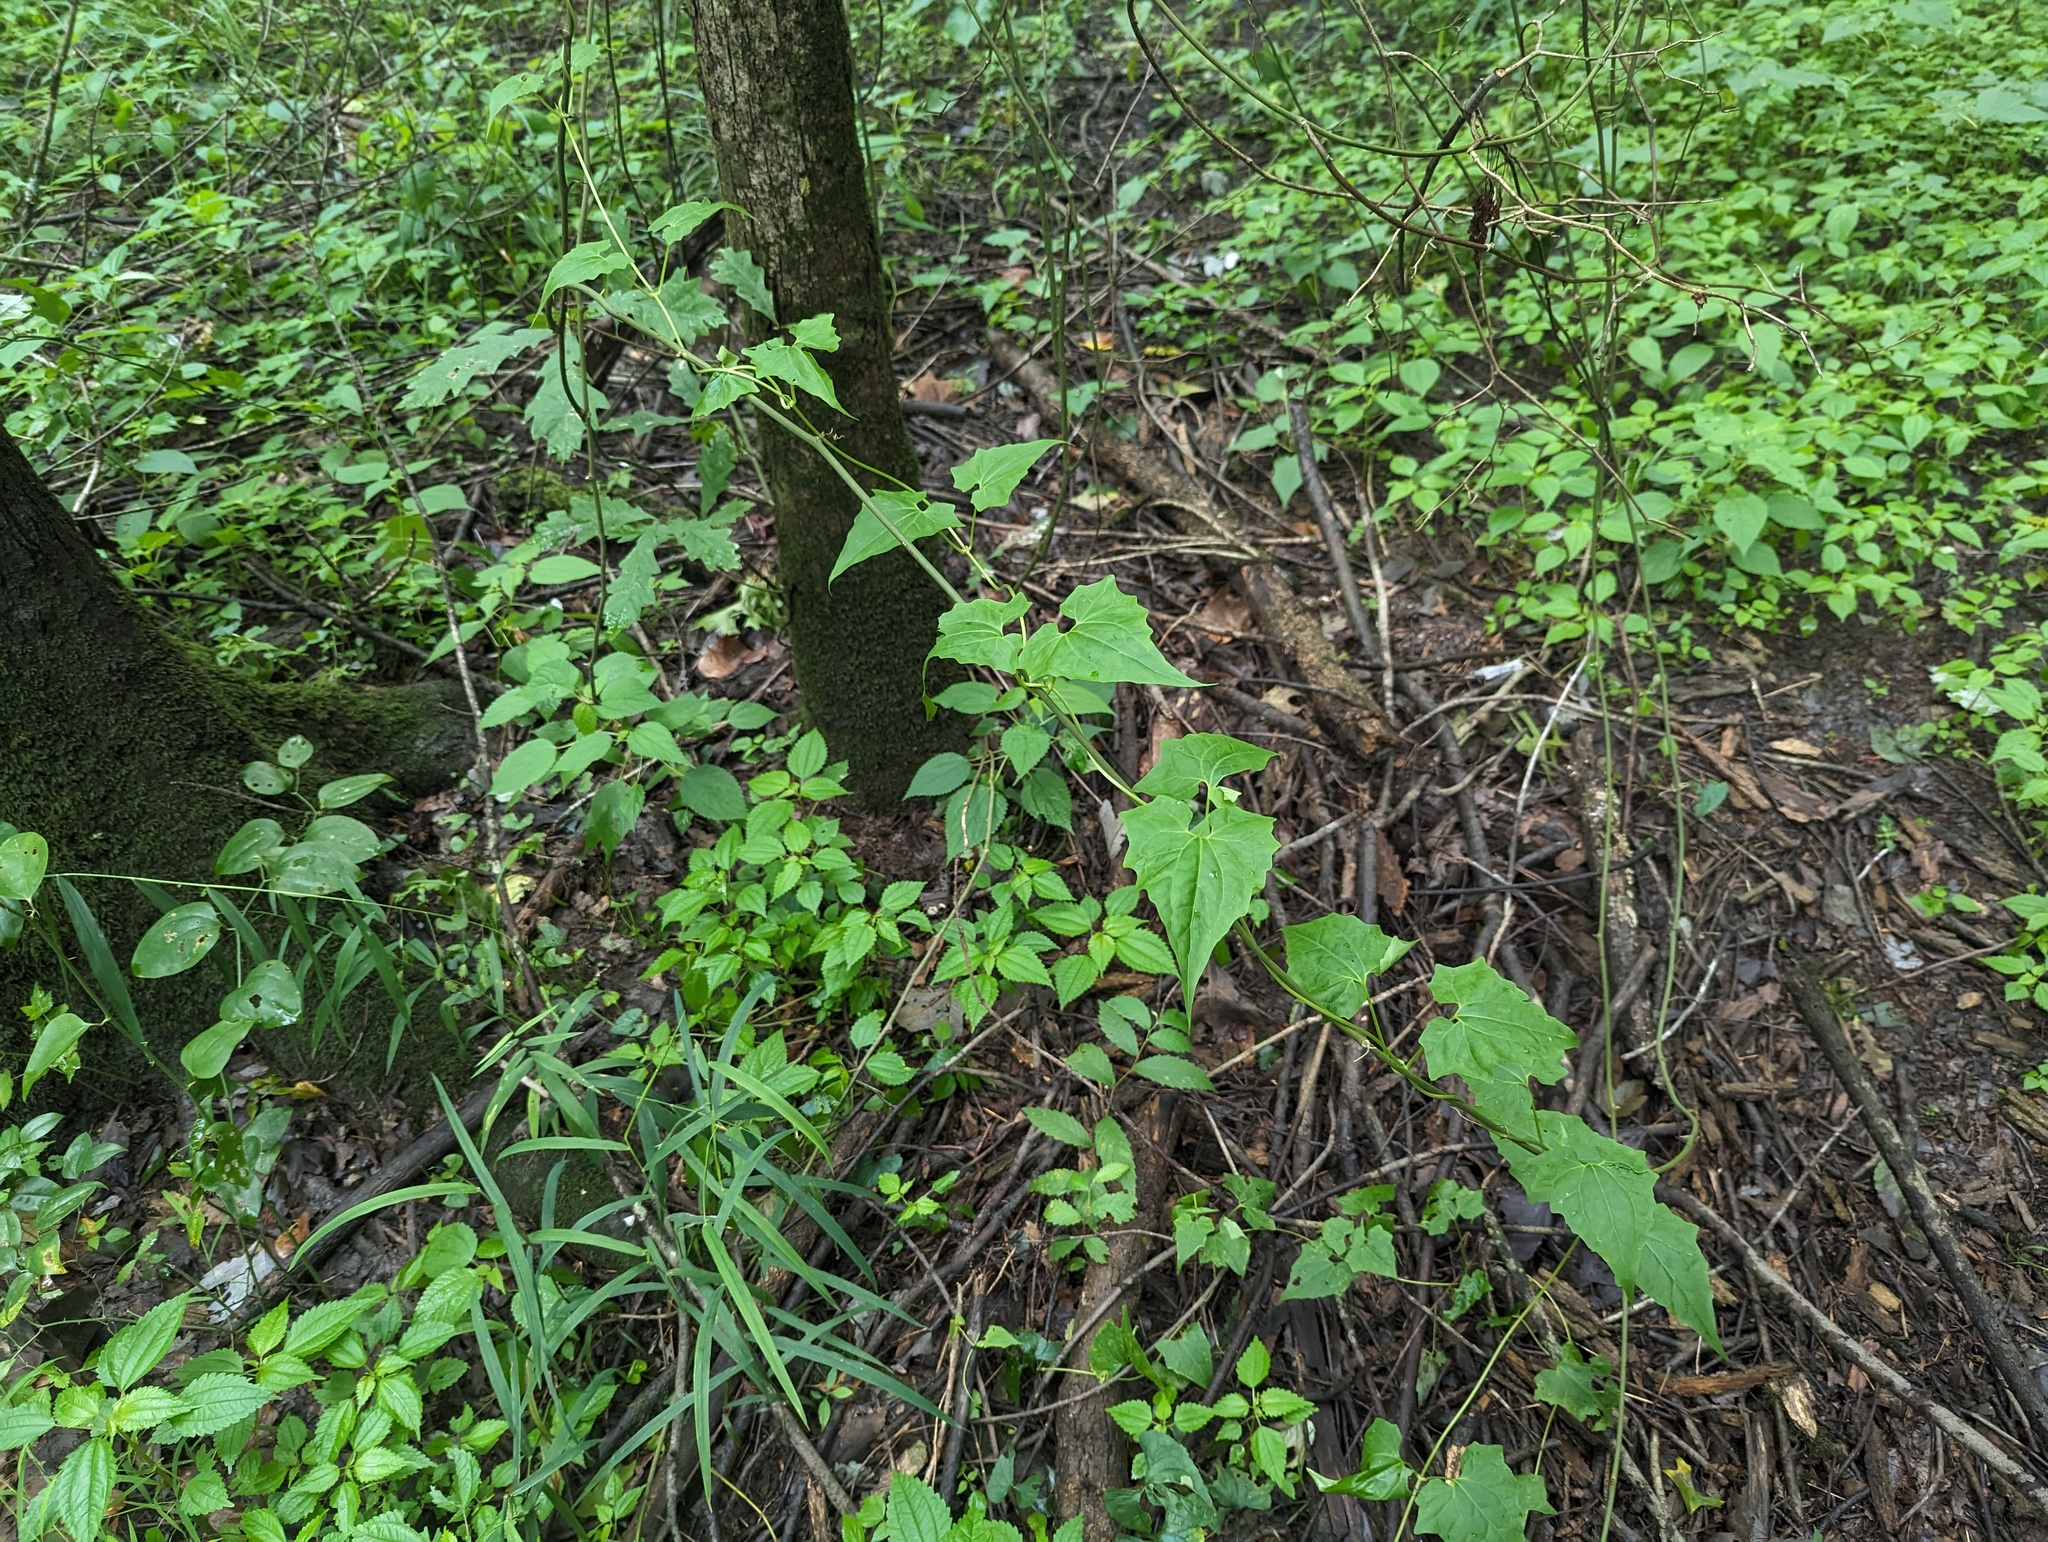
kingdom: Plantae
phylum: Tracheophyta
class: Magnoliopsida
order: Asterales
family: Asteraceae
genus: Mikania
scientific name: Mikania scandens
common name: Climbing hempvine
